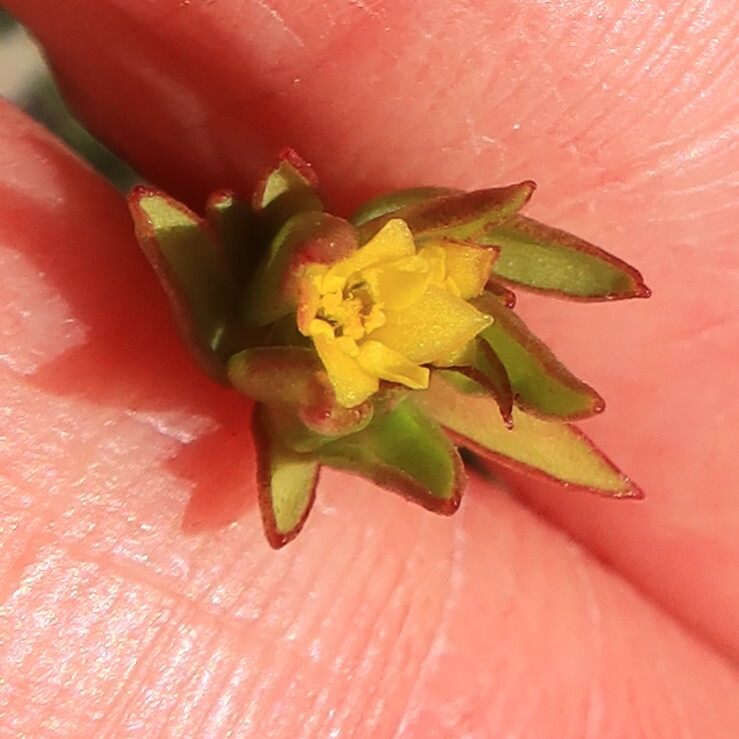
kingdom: Plantae
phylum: Tracheophyta
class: Magnoliopsida
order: Malvales
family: Thymelaeaceae
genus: Gnidia
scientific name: Gnidia juniperifolia
